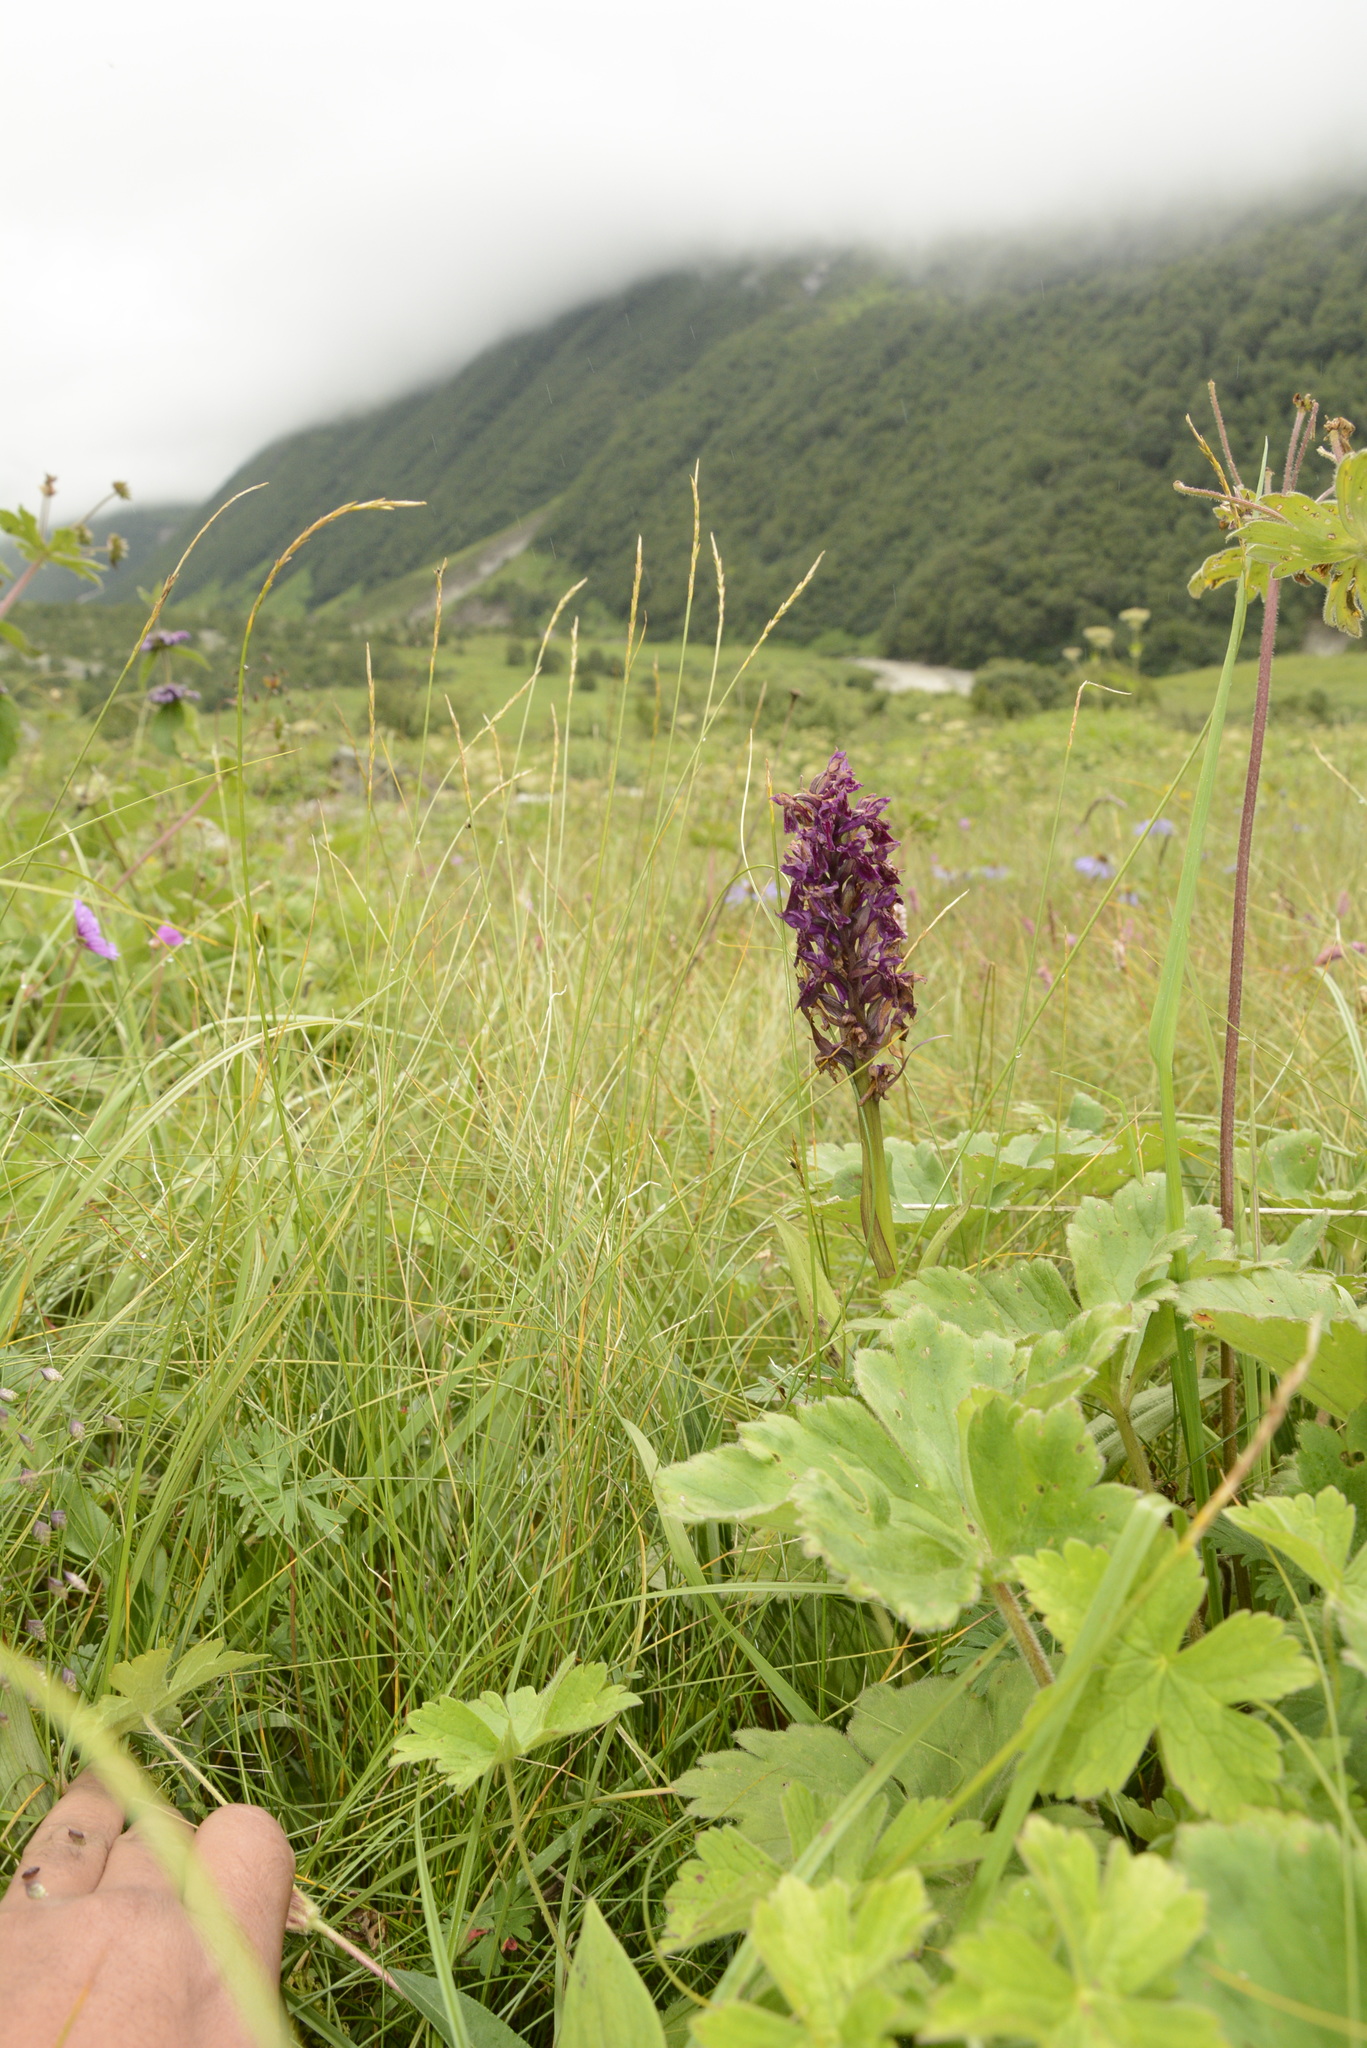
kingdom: Plantae
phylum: Tracheophyta
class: Liliopsida
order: Asparagales
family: Orchidaceae
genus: Dactylorhiza
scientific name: Dactylorhiza hatagirea
